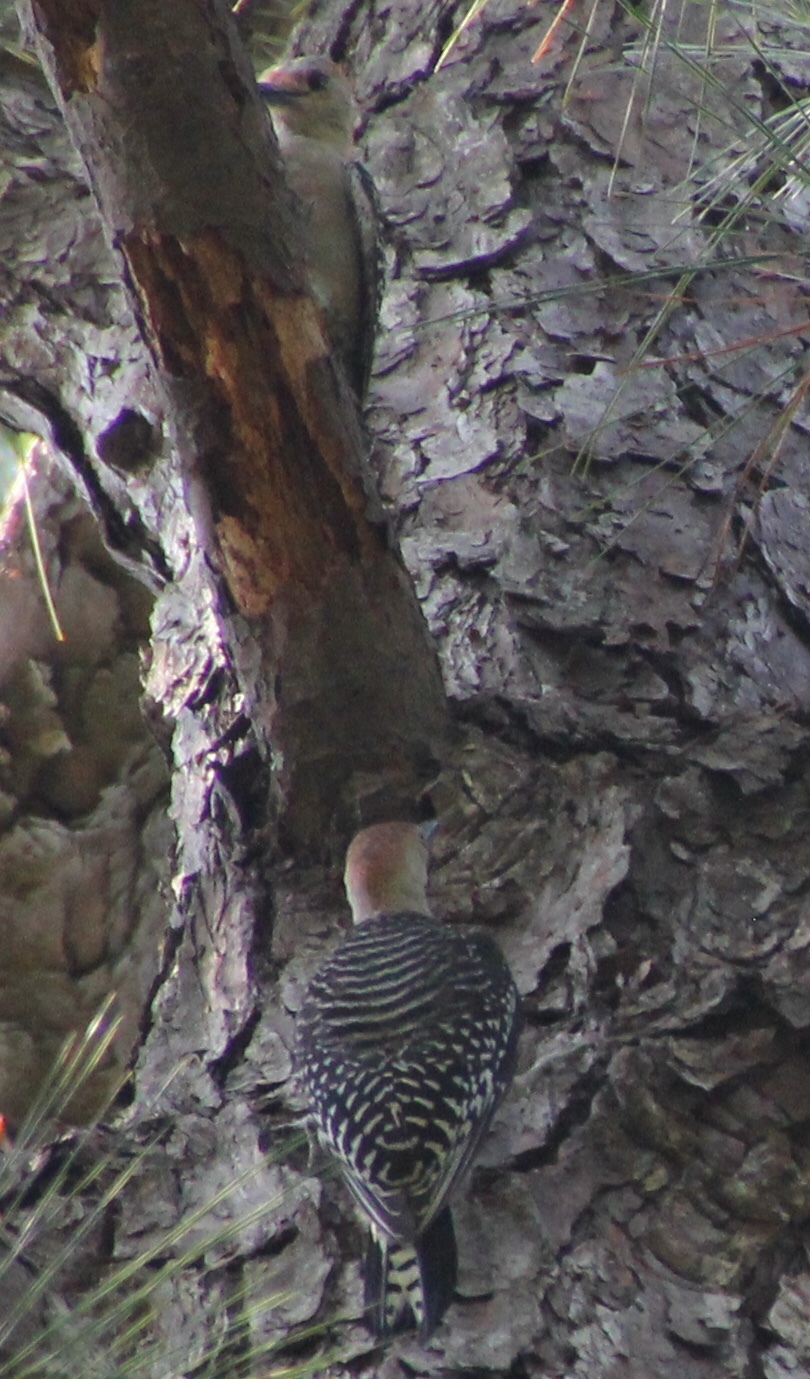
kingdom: Animalia
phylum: Chordata
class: Aves
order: Piciformes
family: Picidae
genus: Melanerpes
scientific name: Melanerpes carolinus
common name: Red-bellied woodpecker
